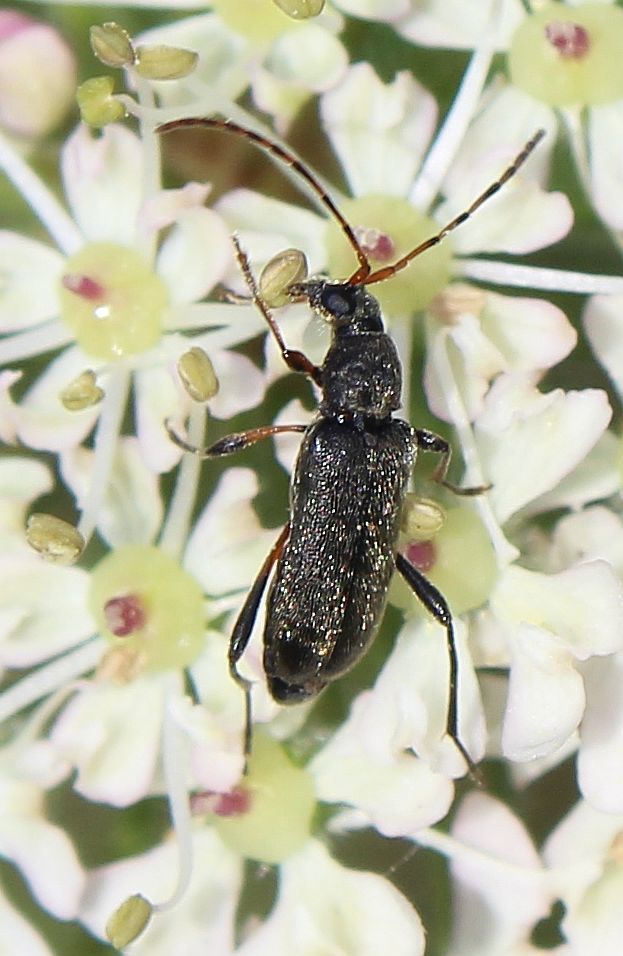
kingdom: Animalia
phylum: Arthropoda
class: Insecta
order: Coleoptera
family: Cerambycidae
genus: Grammoptera
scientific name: Grammoptera ruficornis
